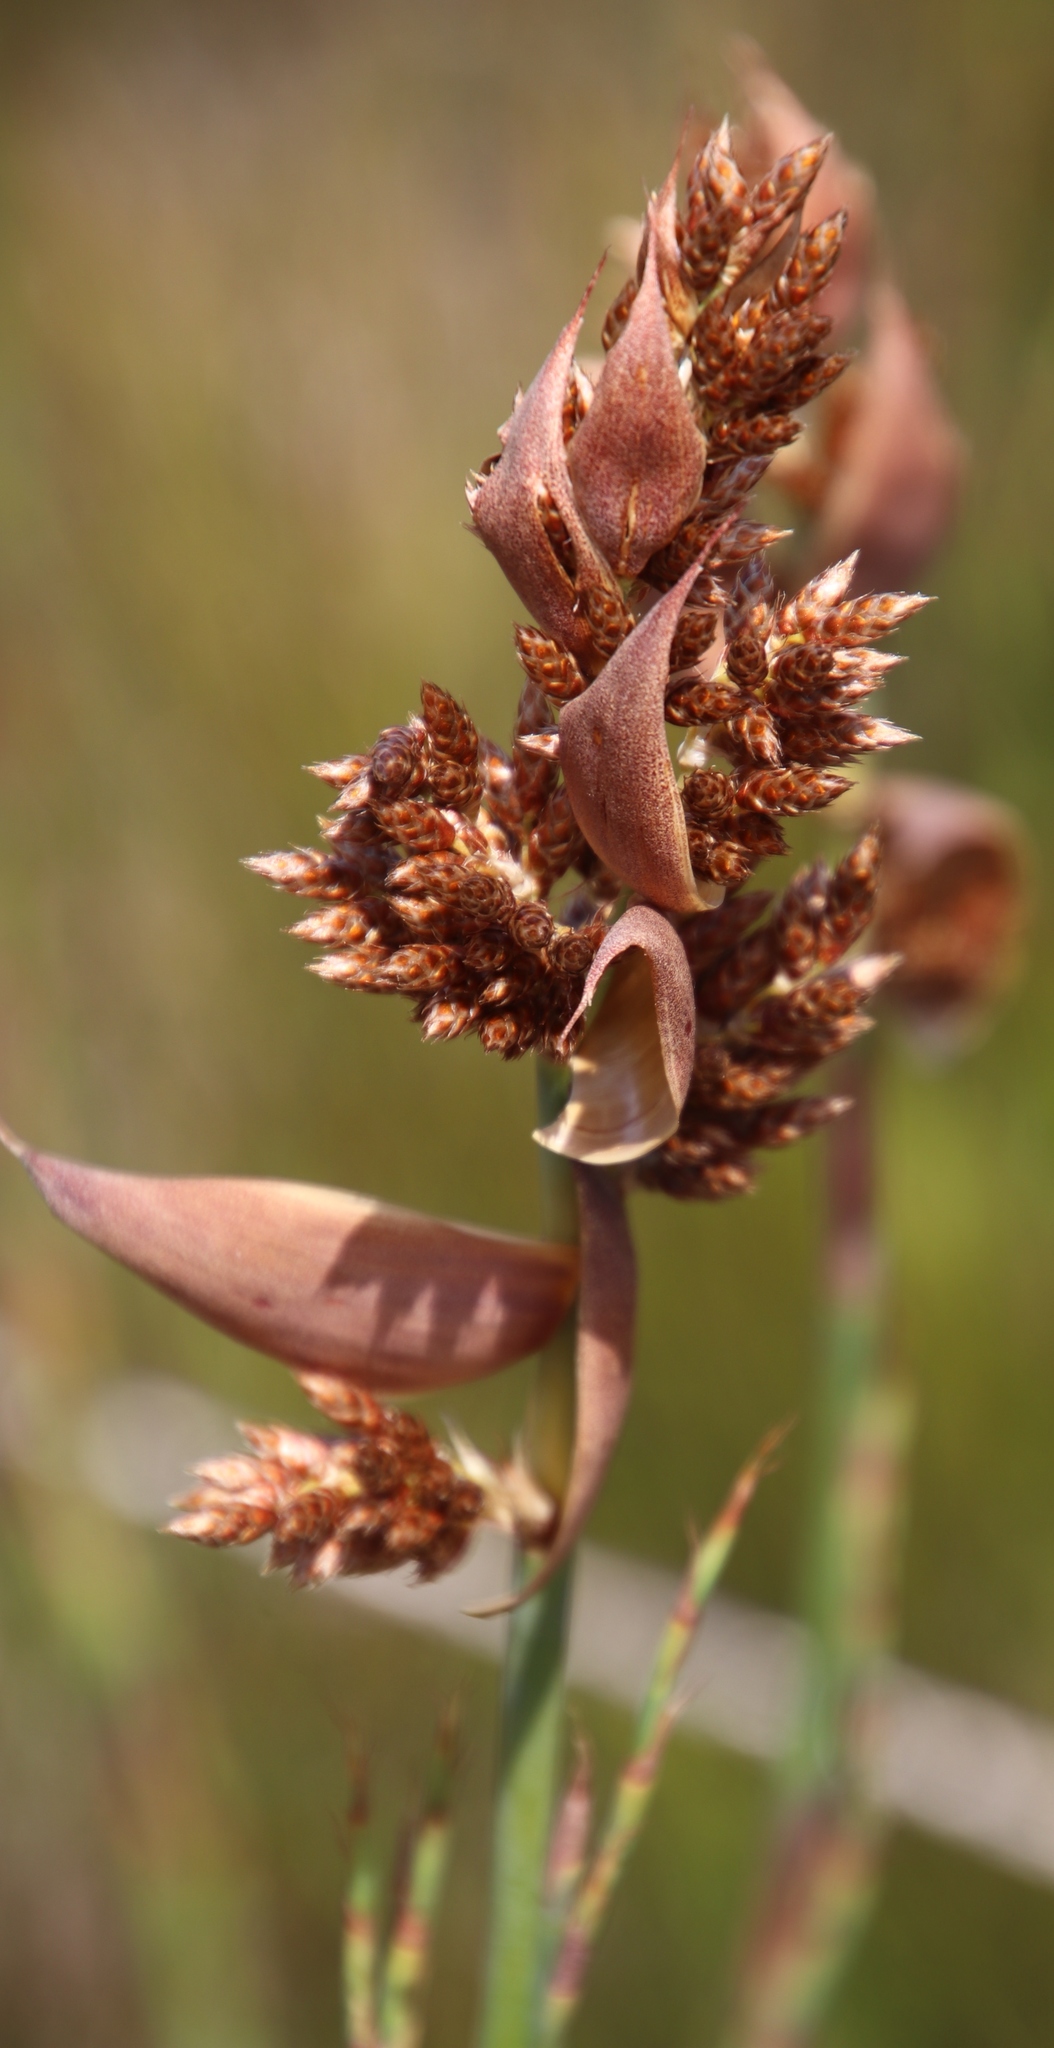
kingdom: Plantae
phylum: Tracheophyta
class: Liliopsida
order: Poales
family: Restionaceae
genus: Cannomois
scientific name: Cannomois virgata
